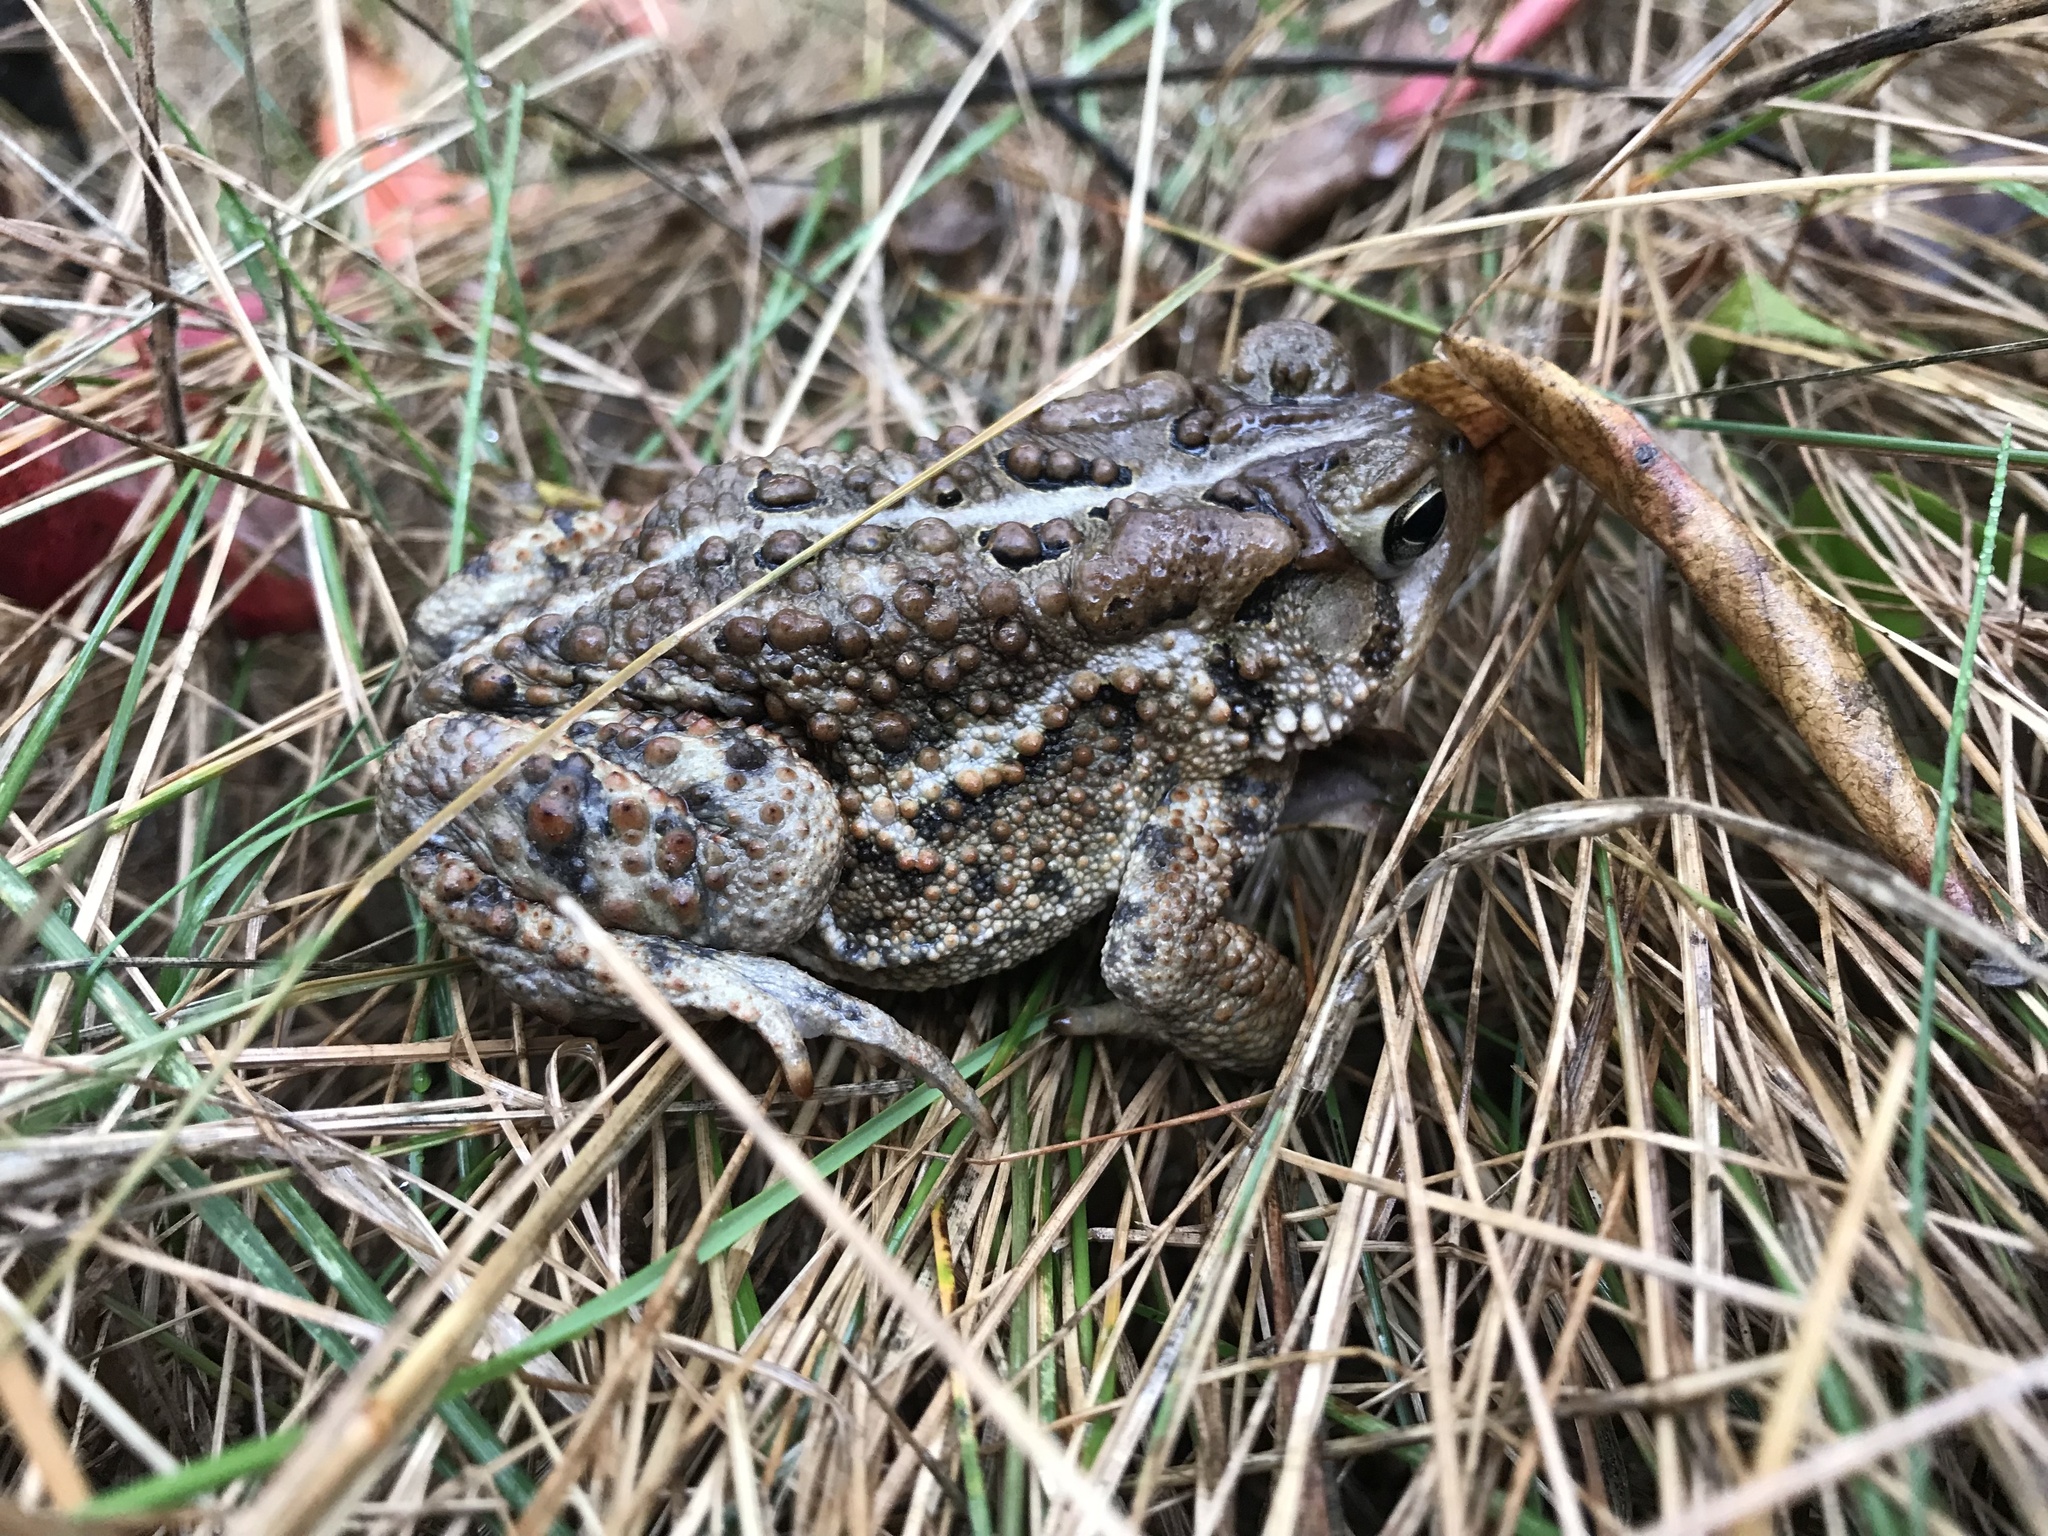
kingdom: Animalia
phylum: Chordata
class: Amphibia
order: Anura
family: Bufonidae
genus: Anaxyrus
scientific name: Anaxyrus americanus
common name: American toad
